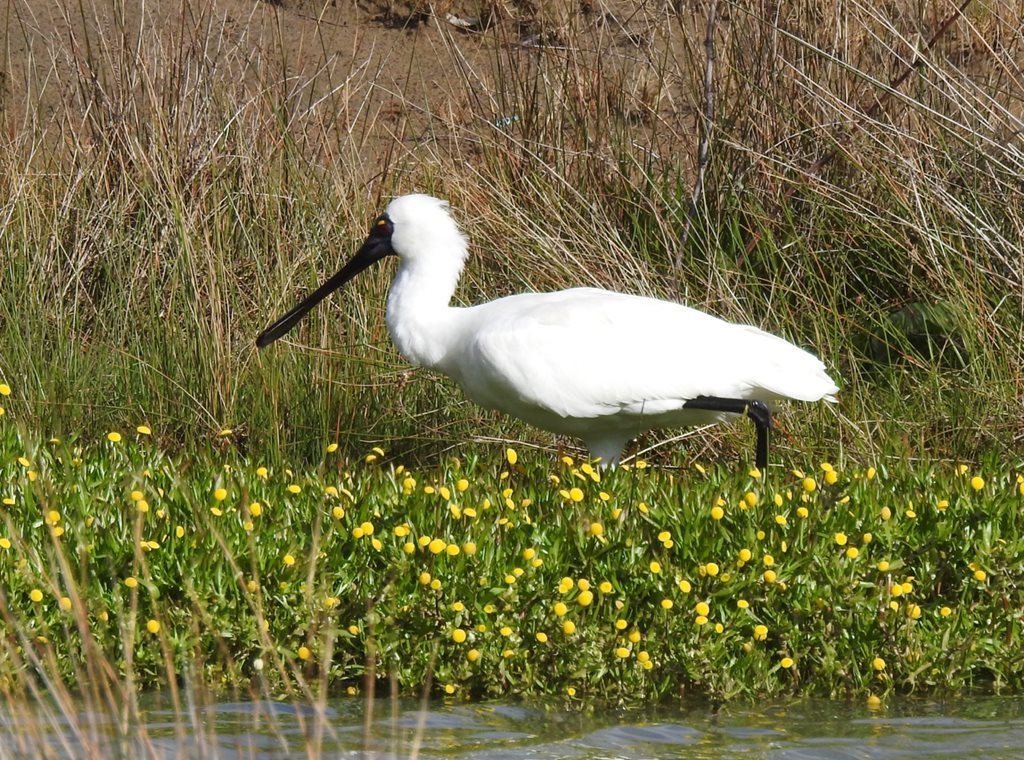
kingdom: Animalia
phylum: Chordata
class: Aves
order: Pelecaniformes
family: Threskiornithidae
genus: Platalea
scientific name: Platalea regia
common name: Royal spoonbill
